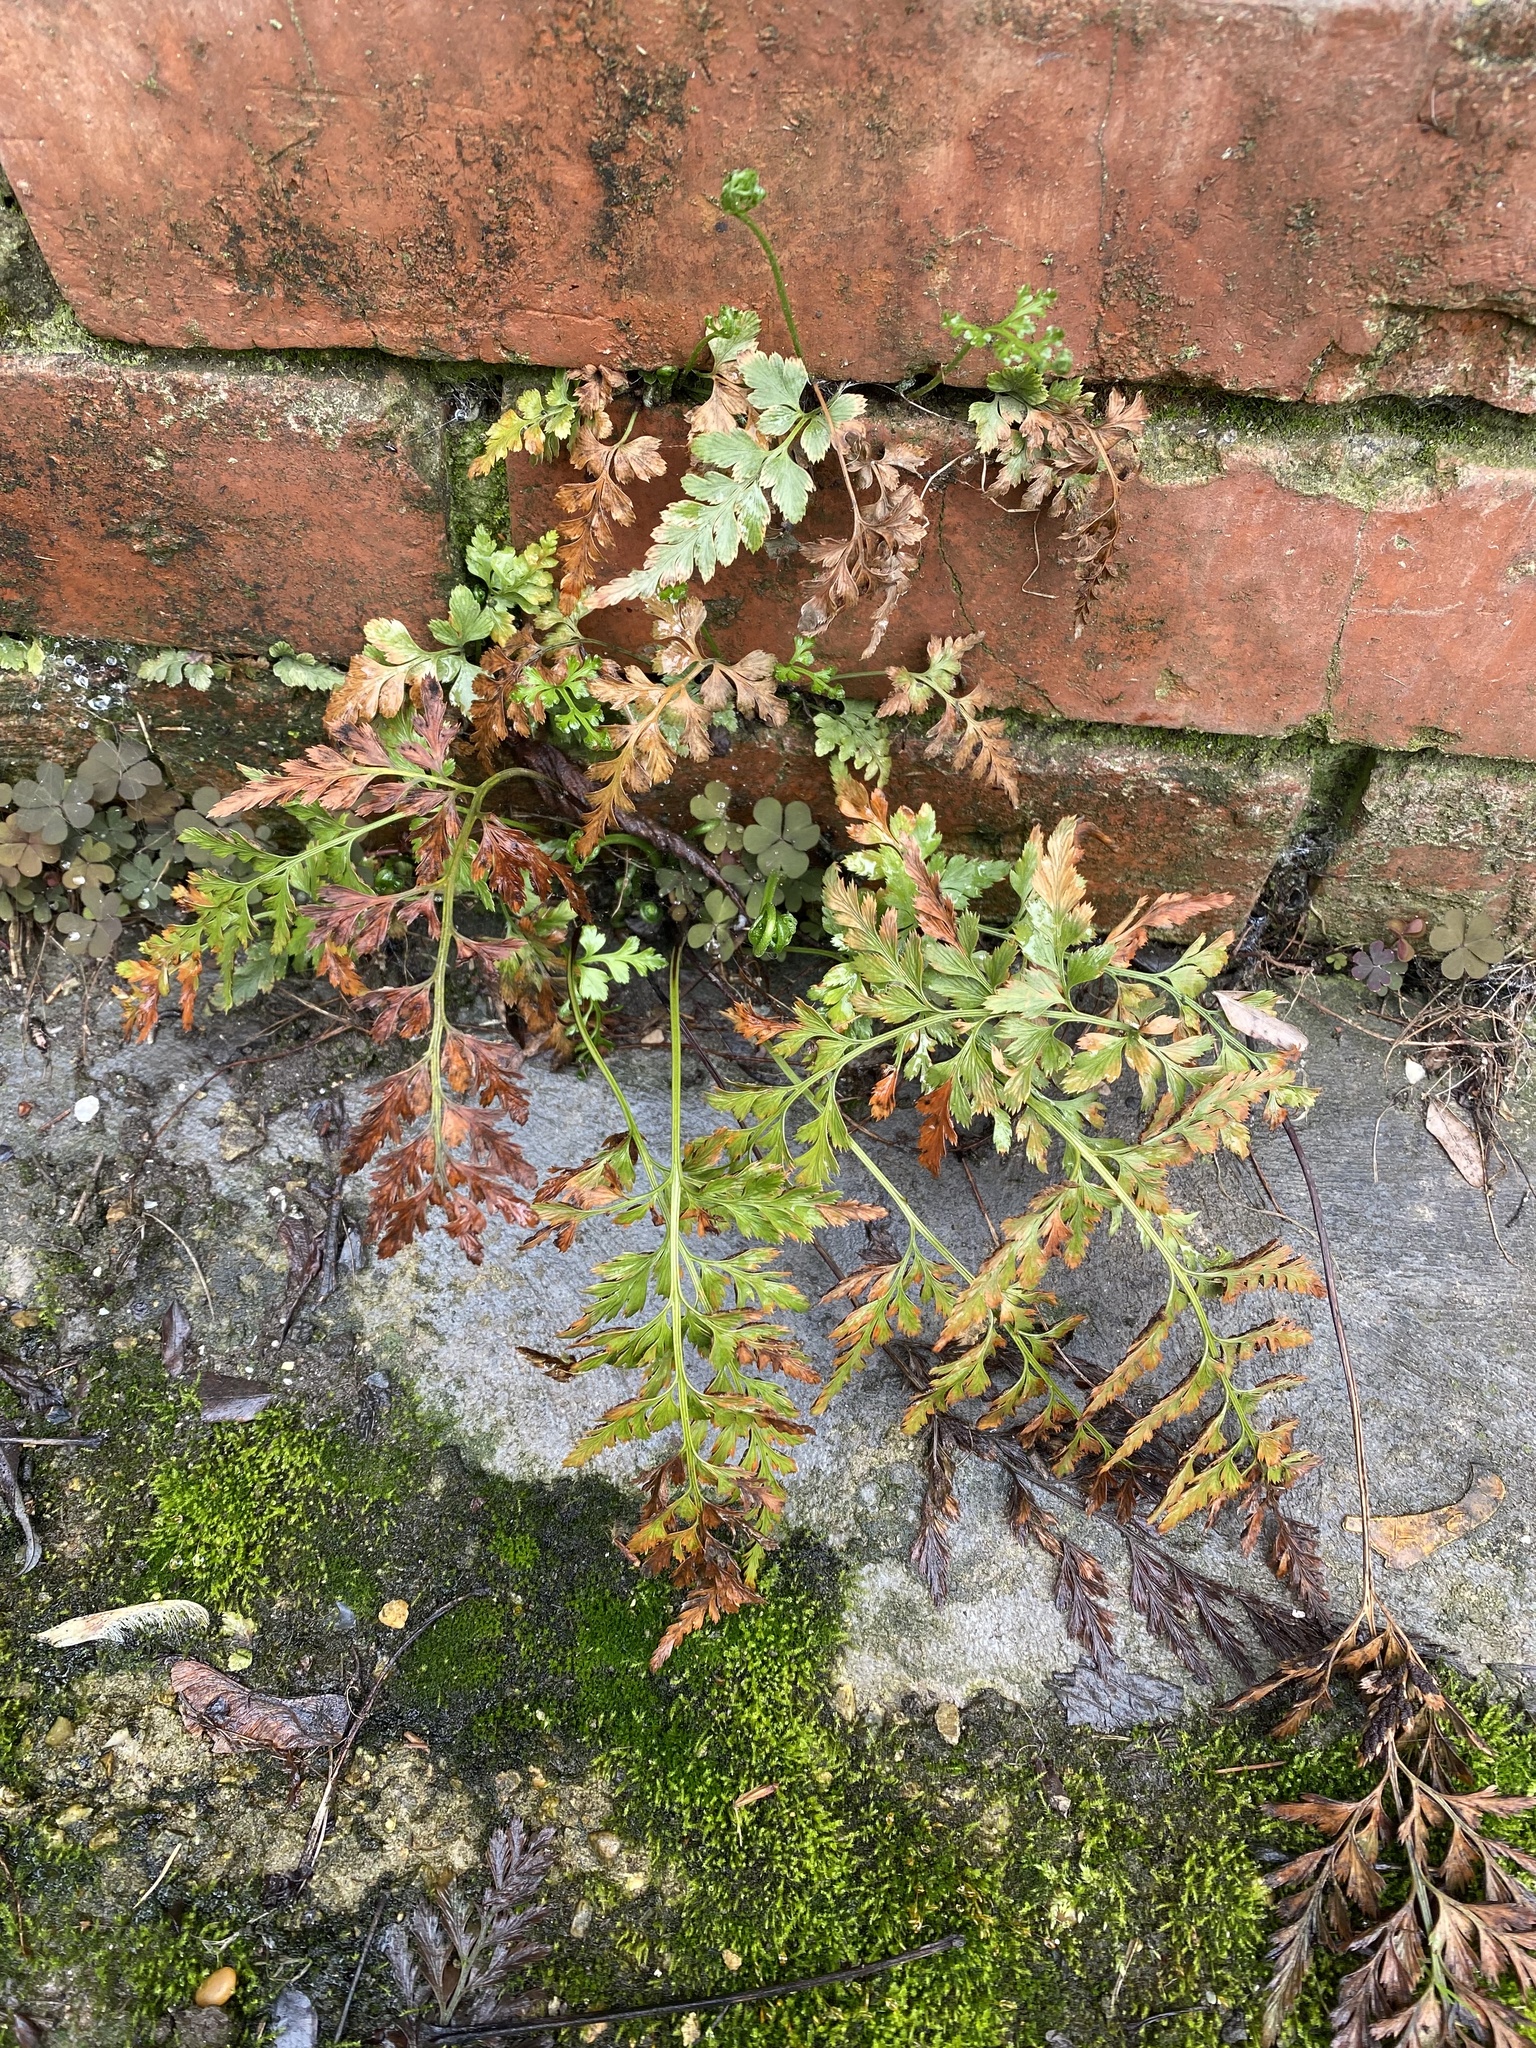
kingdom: Plantae
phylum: Tracheophyta
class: Polypodiopsida
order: Polypodiales
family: Aspleniaceae
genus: Asplenium
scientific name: Asplenium adiantum-nigrum
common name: Black spleenwort
